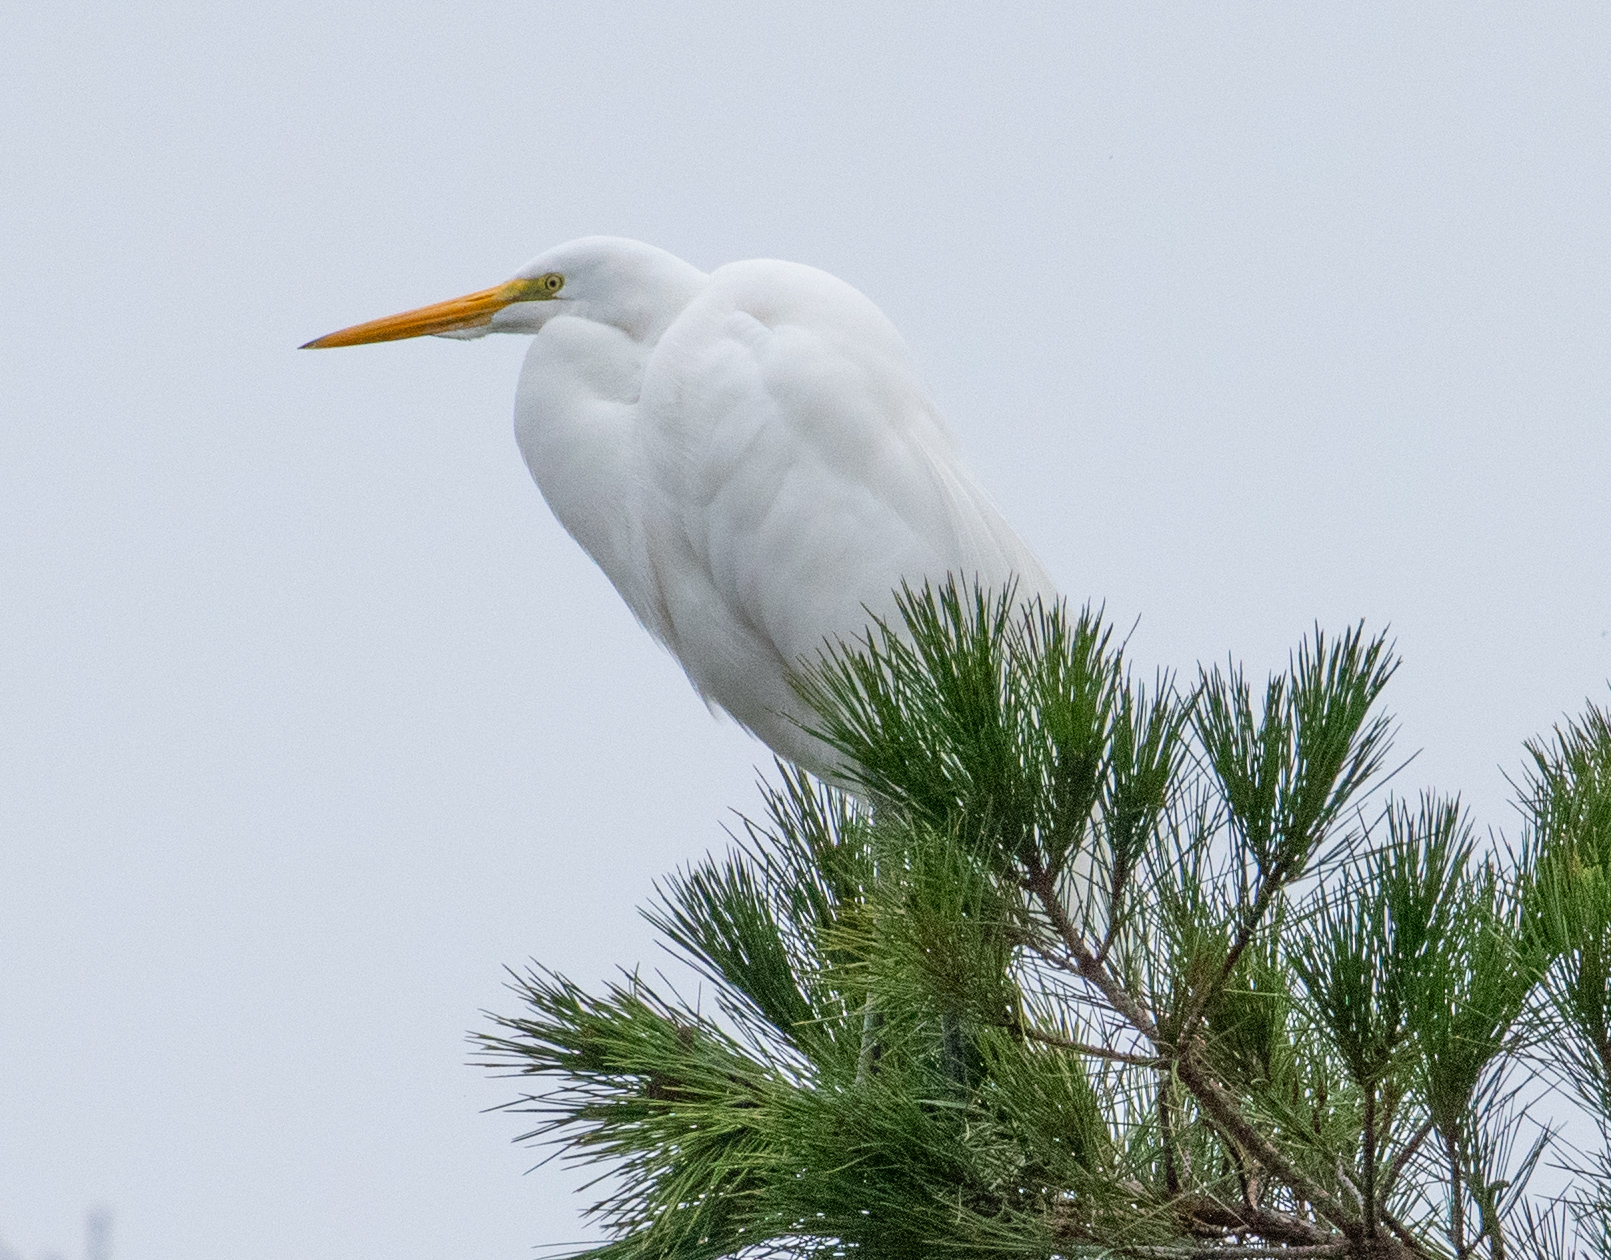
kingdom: Animalia
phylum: Chordata
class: Aves
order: Pelecaniformes
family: Ardeidae
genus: Ardea
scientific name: Ardea alba
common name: Great egret
